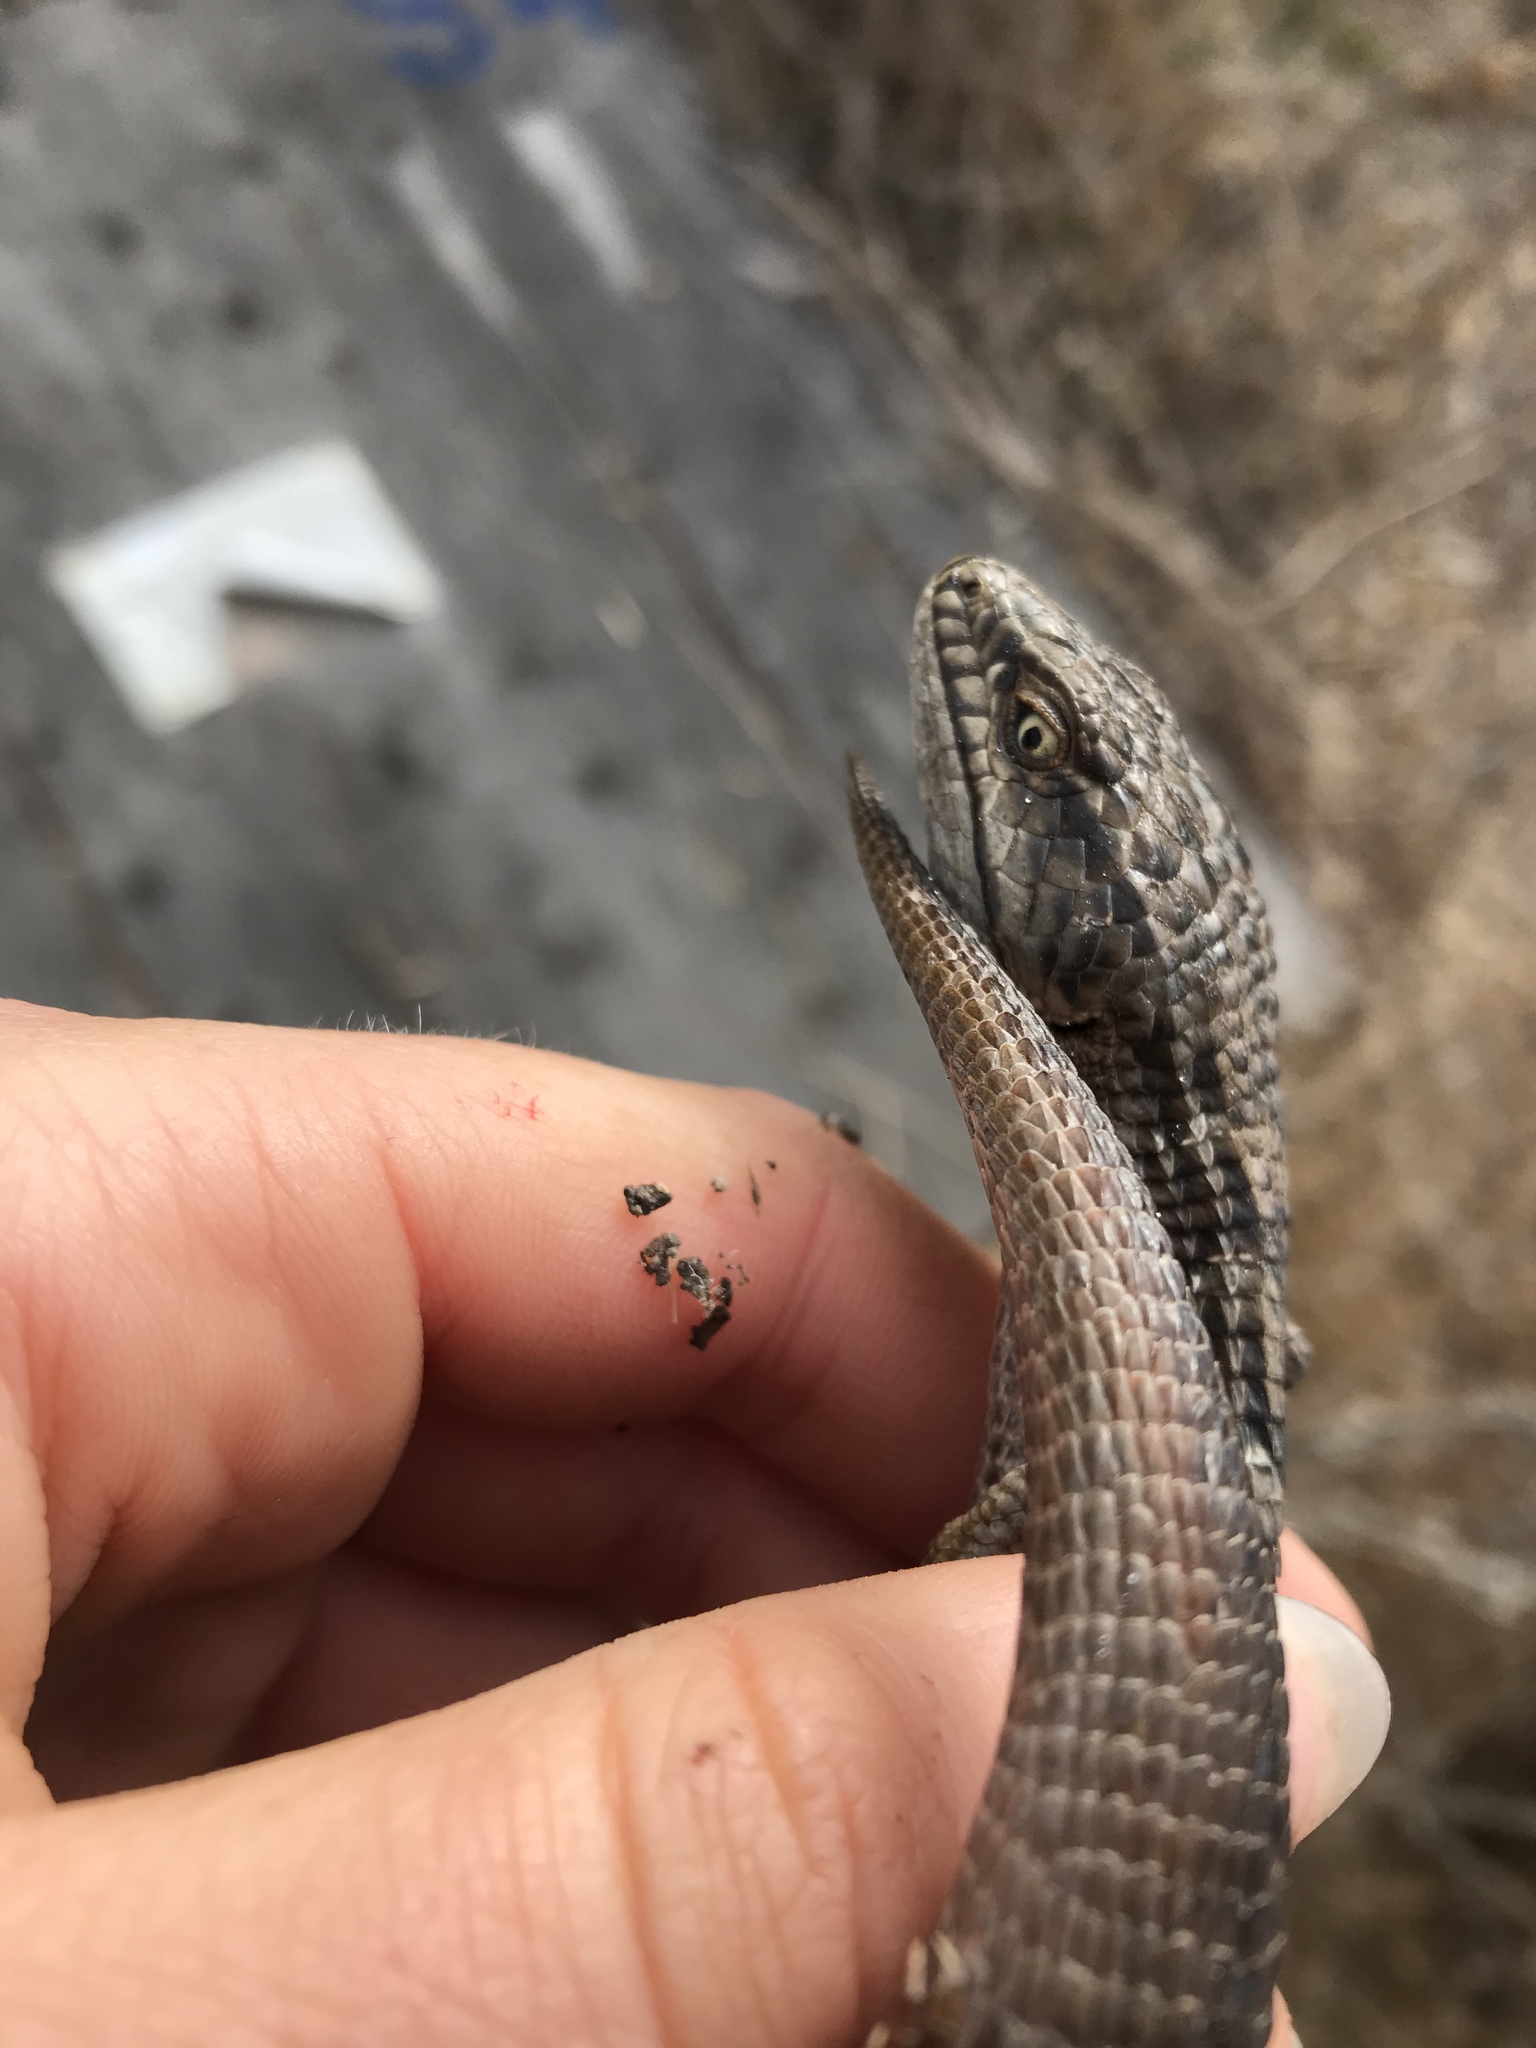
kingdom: Animalia
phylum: Chordata
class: Squamata
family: Anguidae
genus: Elgaria
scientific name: Elgaria multicarinata
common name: Southern alligator lizard
